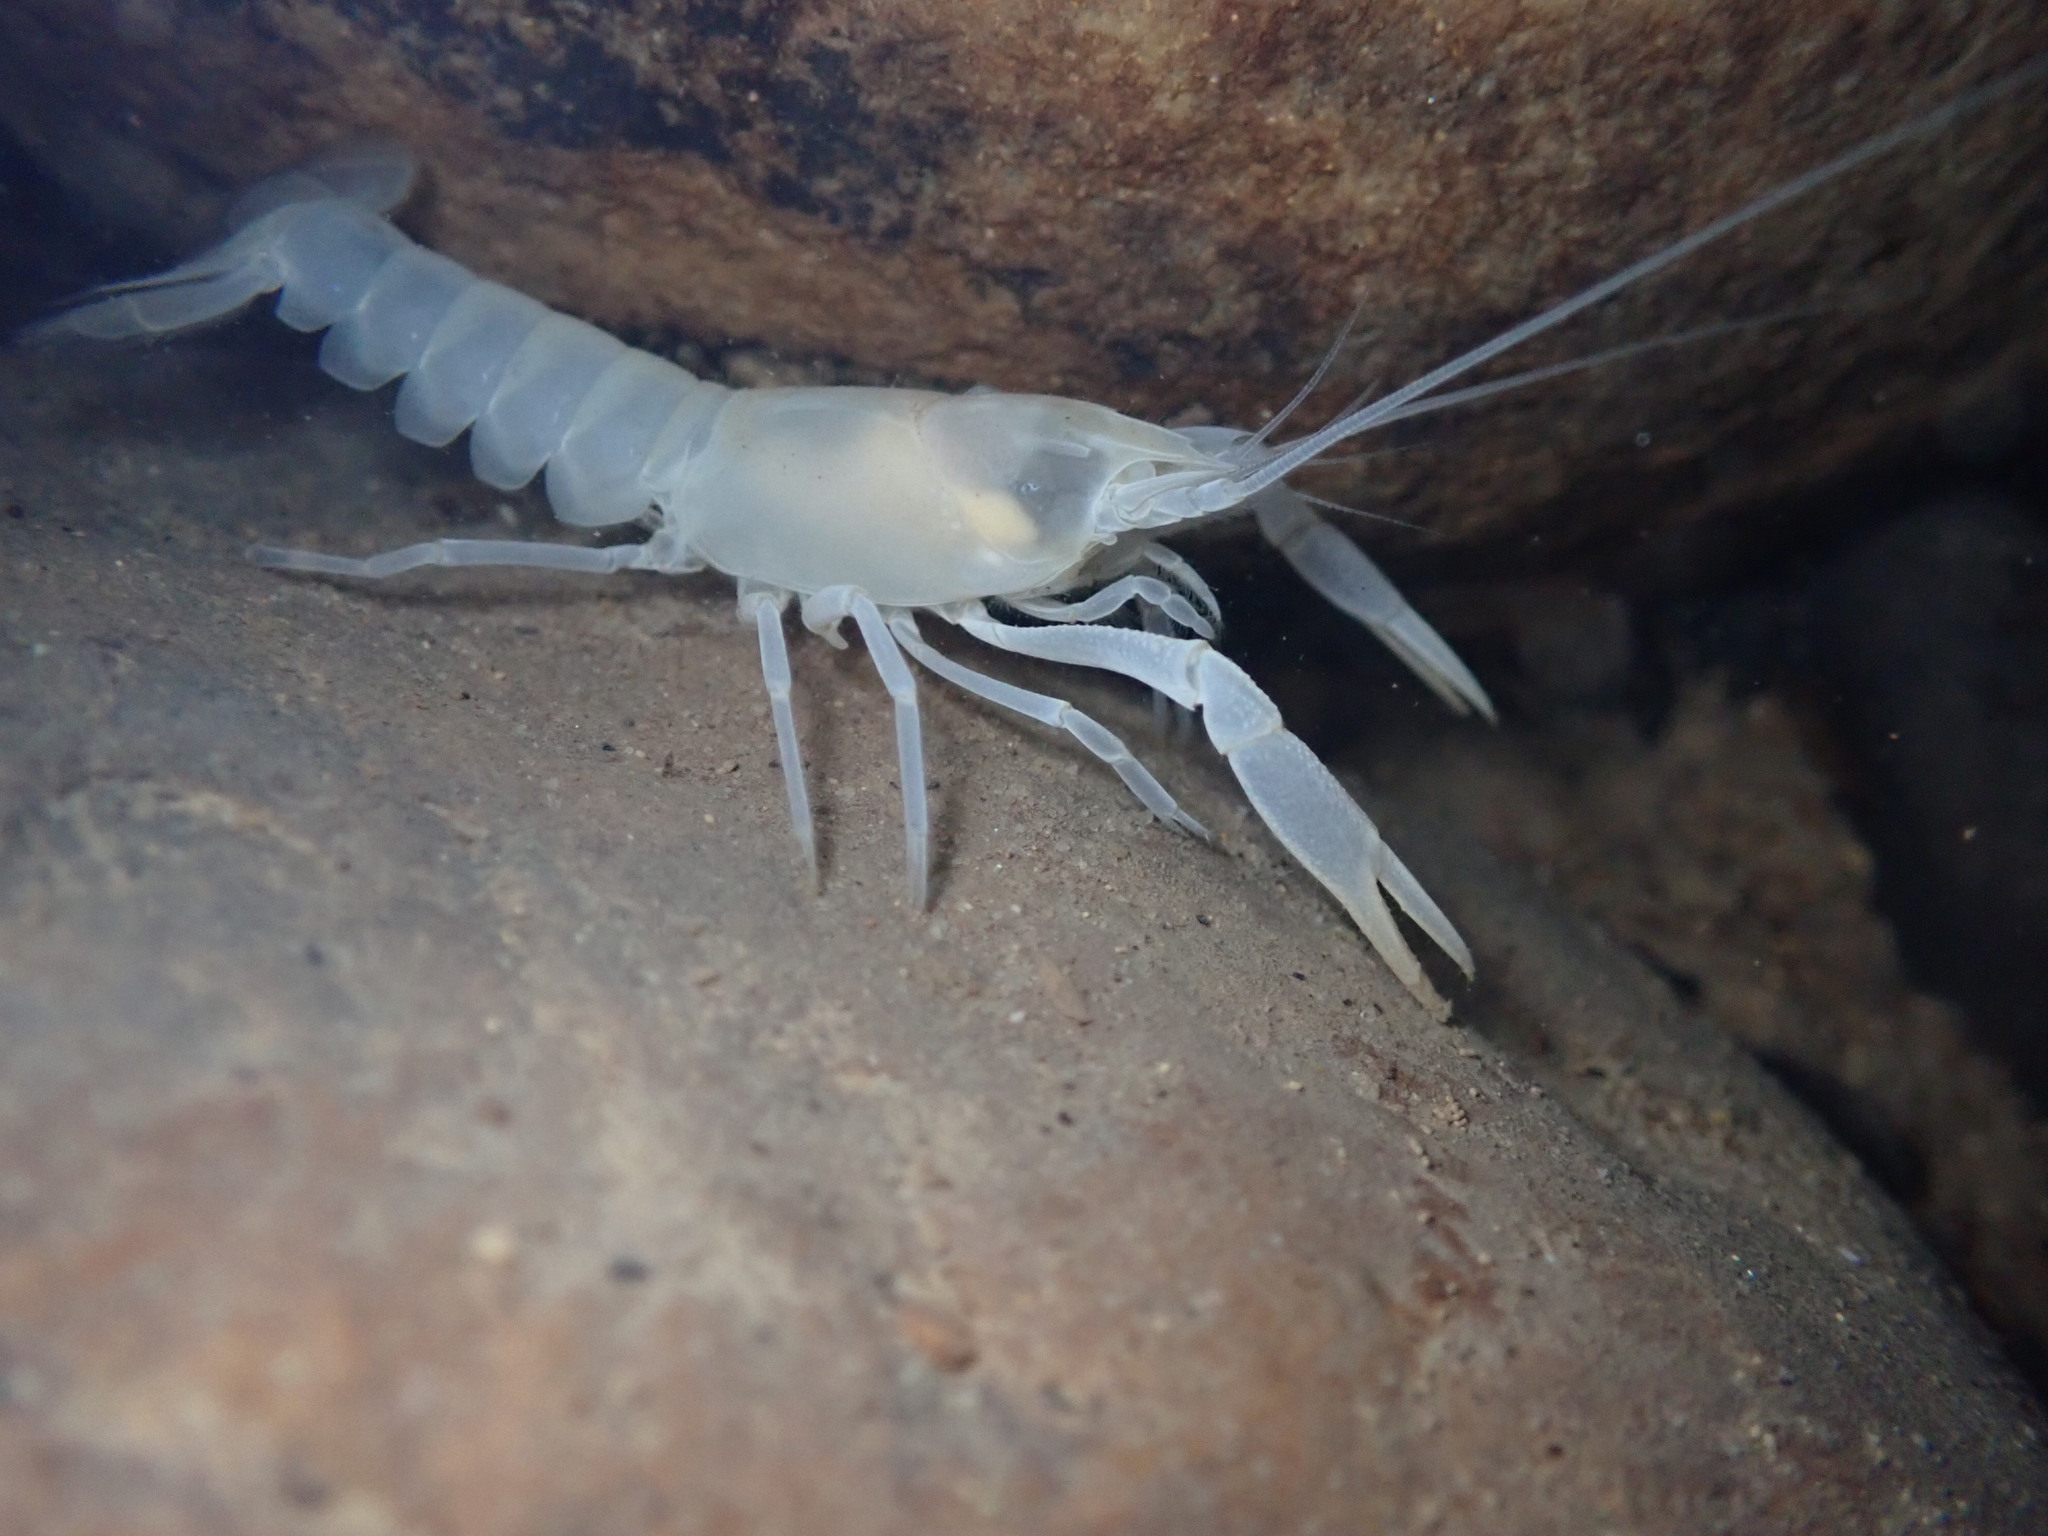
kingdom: Animalia
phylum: Arthropoda
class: Malacostraca
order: Decapoda
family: Cambaridae
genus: Cambarus
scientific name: Cambarus hamulatus
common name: Prickly cave crayfish
